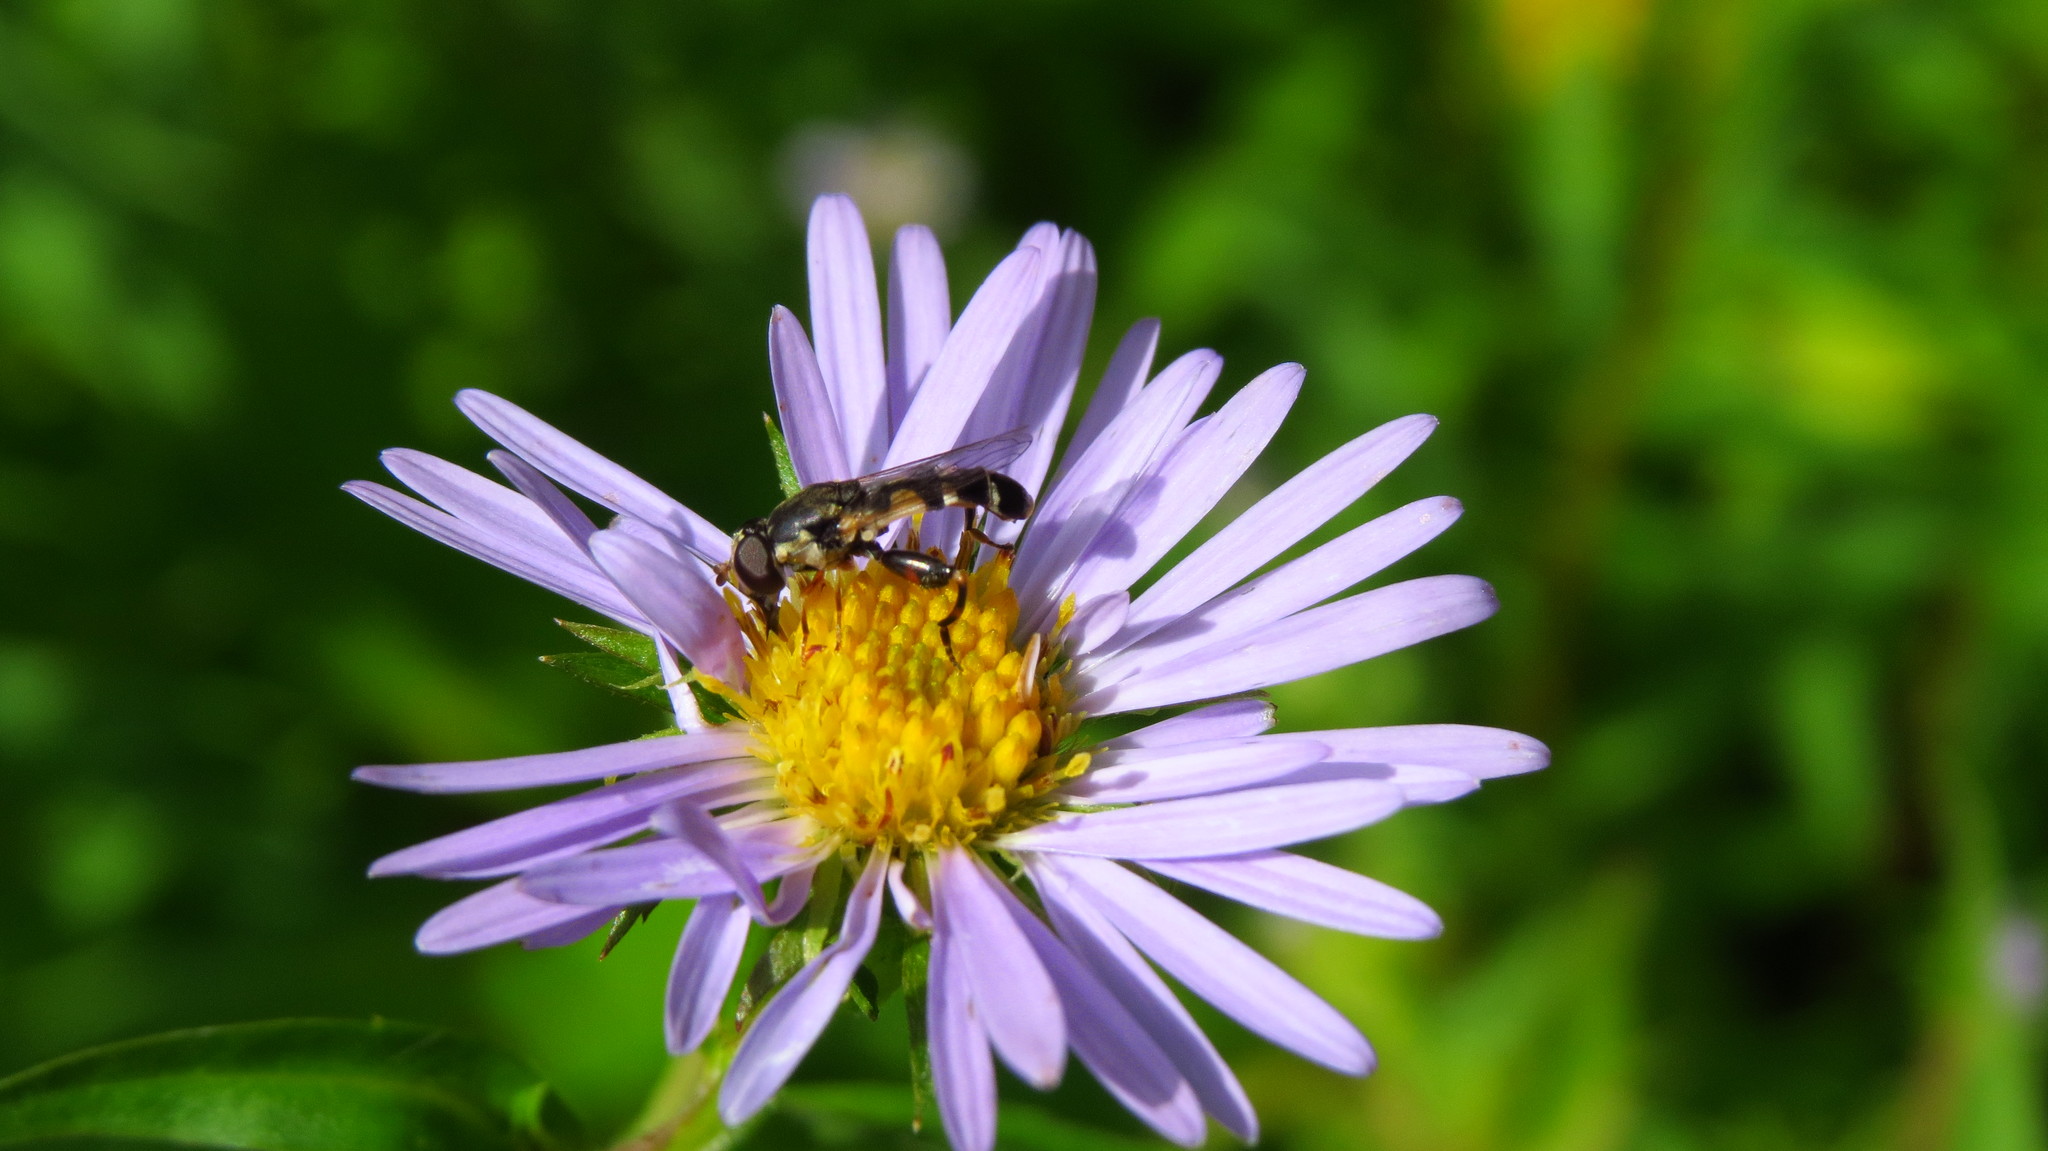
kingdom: Animalia
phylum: Arthropoda
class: Insecta
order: Diptera
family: Syrphidae
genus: Syritta
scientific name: Syritta pipiens
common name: Hover fly
